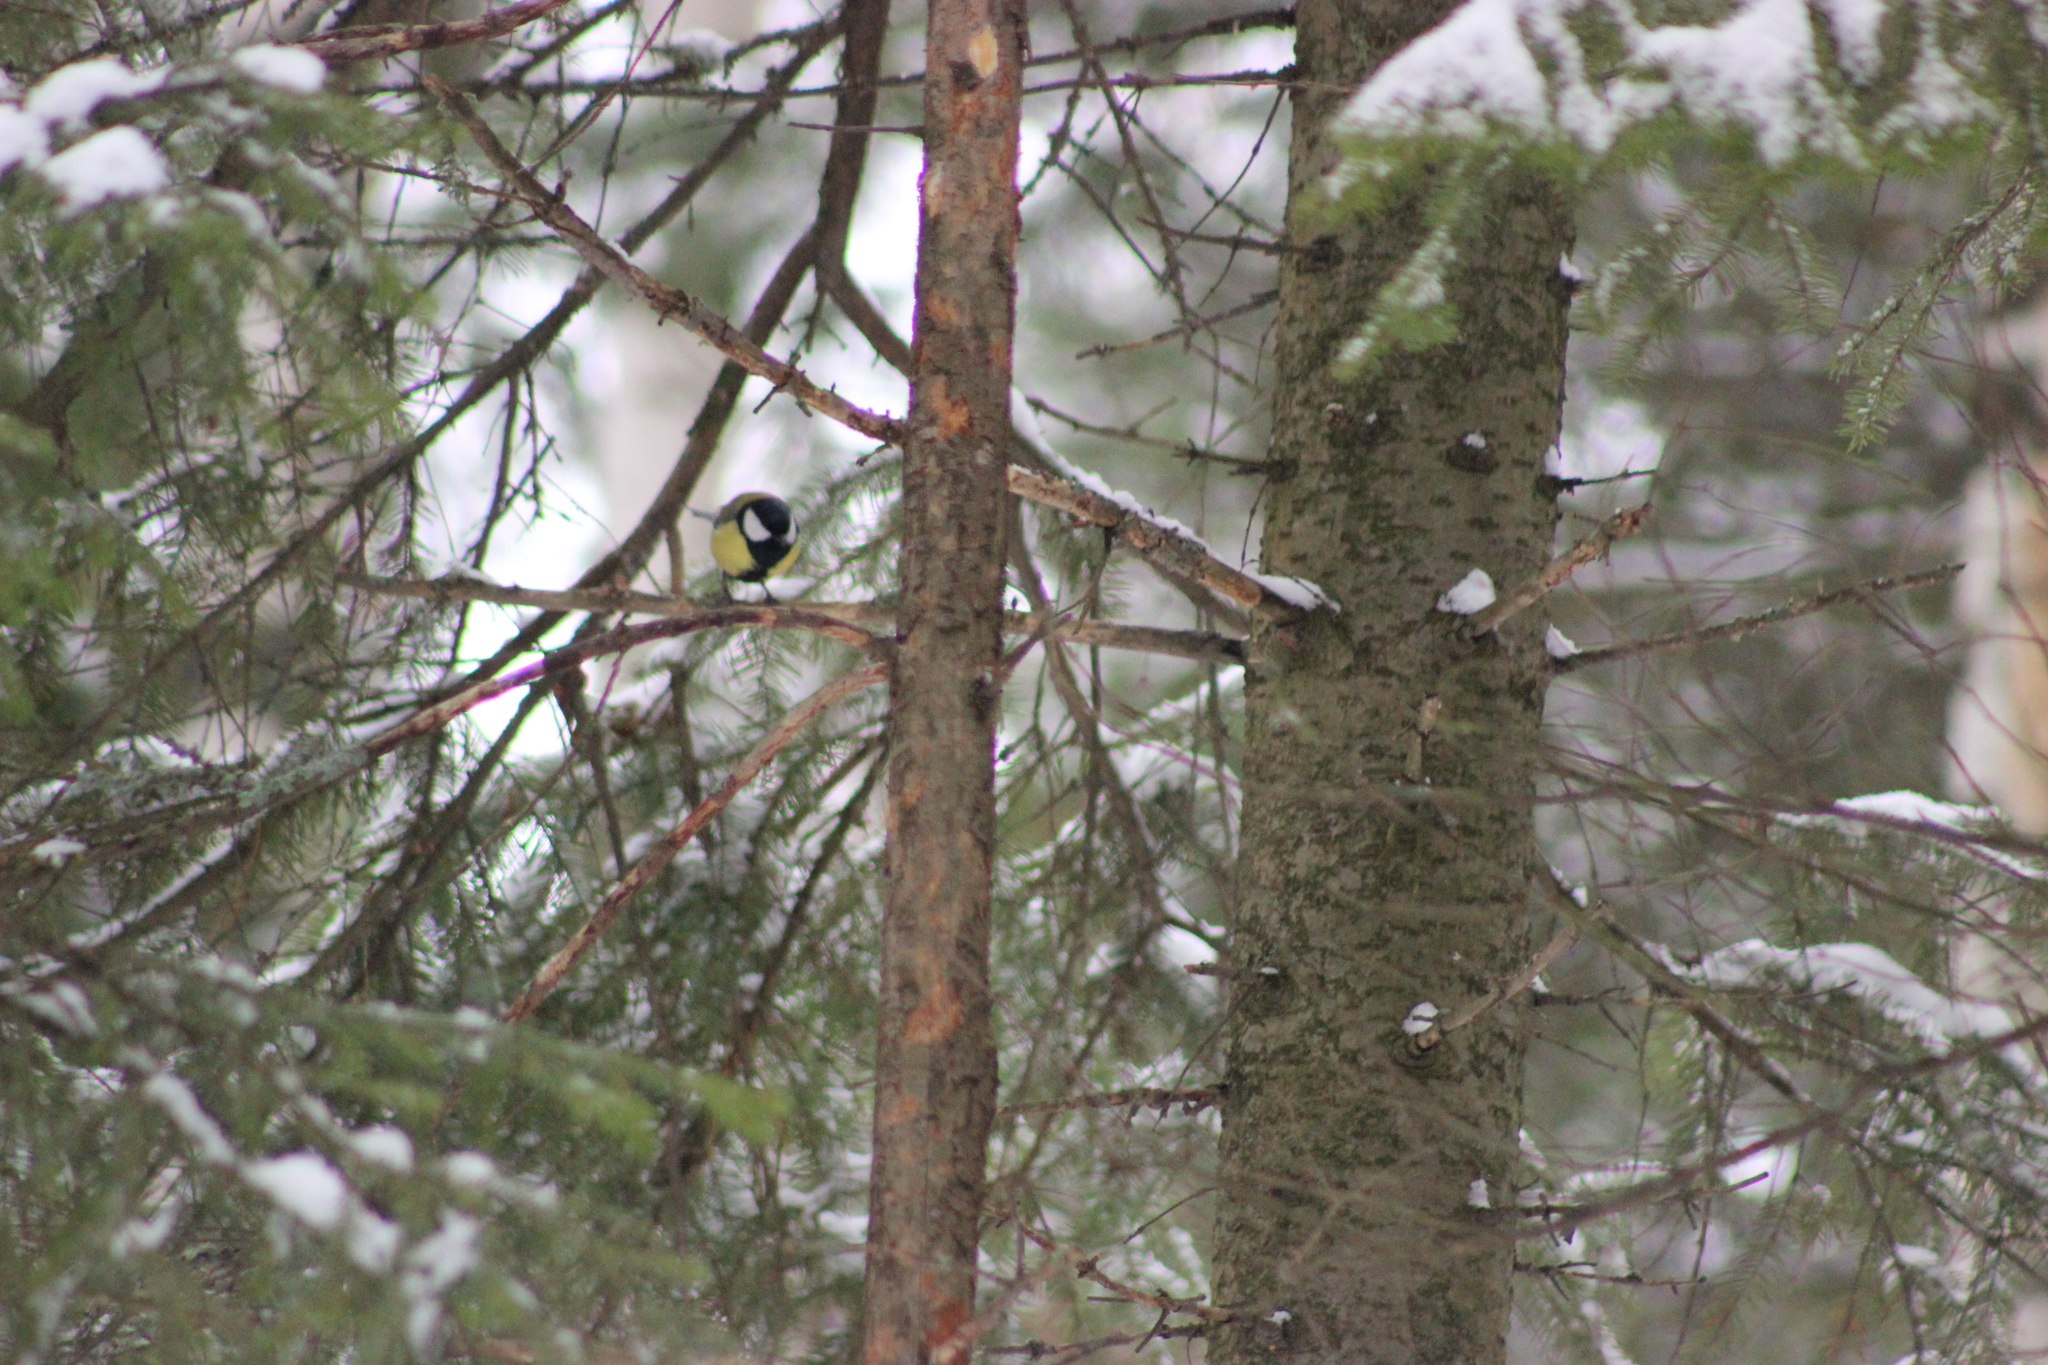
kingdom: Animalia
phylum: Chordata
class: Aves
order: Passeriformes
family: Paridae
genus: Parus
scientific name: Parus major
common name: Great tit
